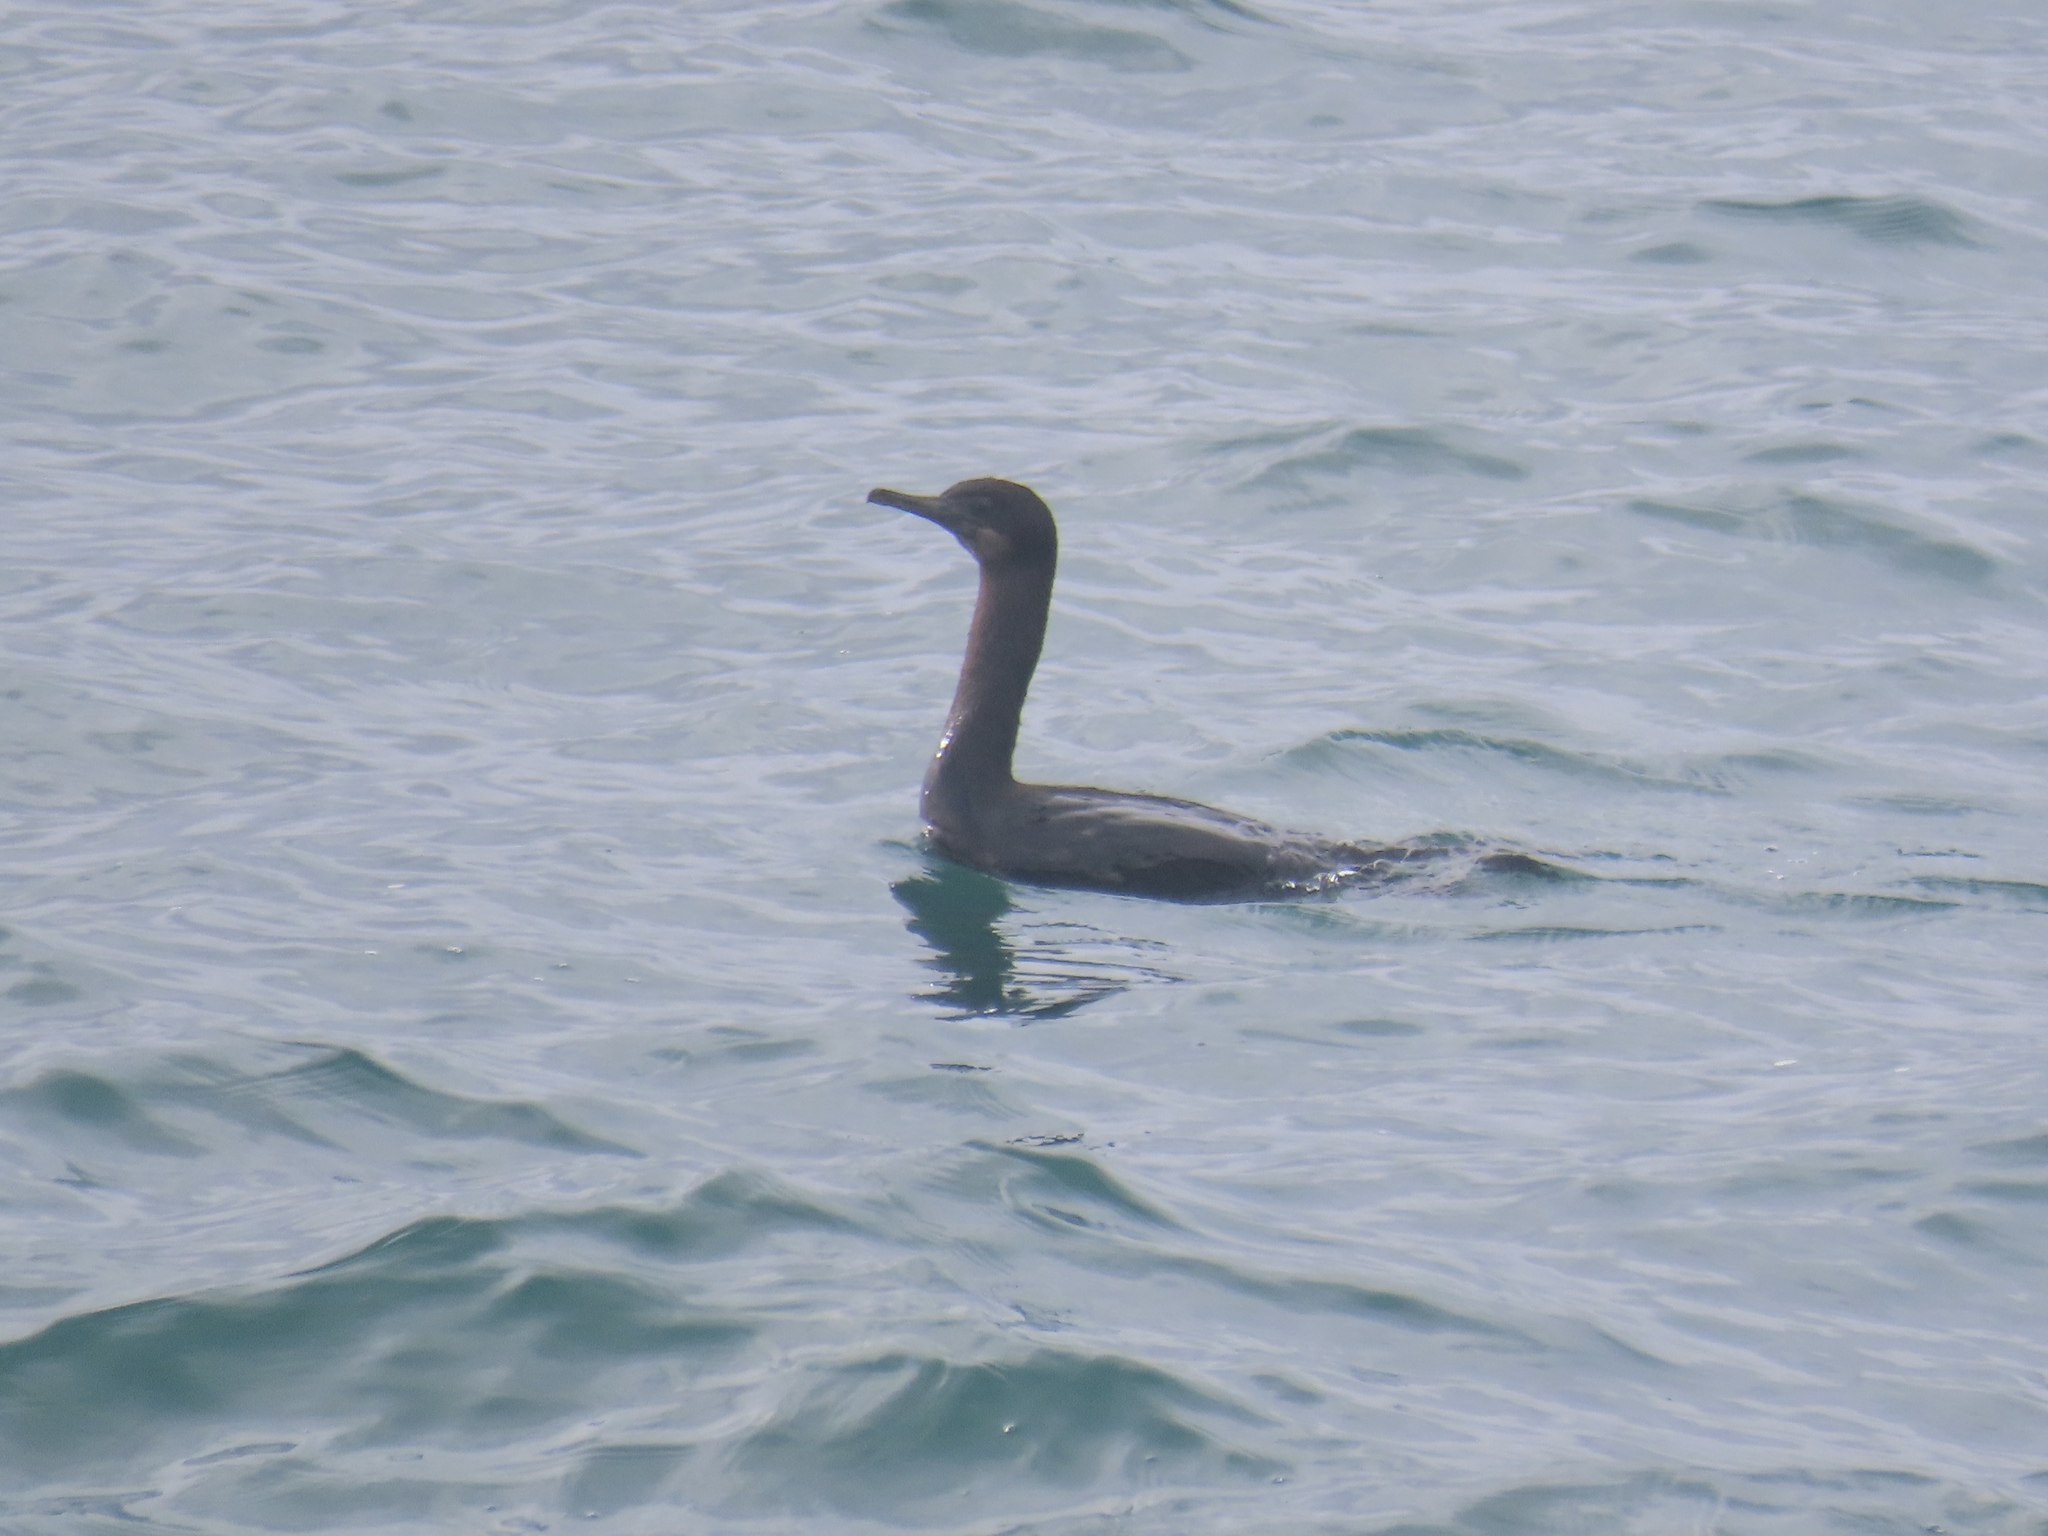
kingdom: Animalia
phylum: Chordata
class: Aves
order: Suliformes
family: Phalacrocoracidae
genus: Urile
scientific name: Urile penicillatus
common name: Brandt's cormorant
